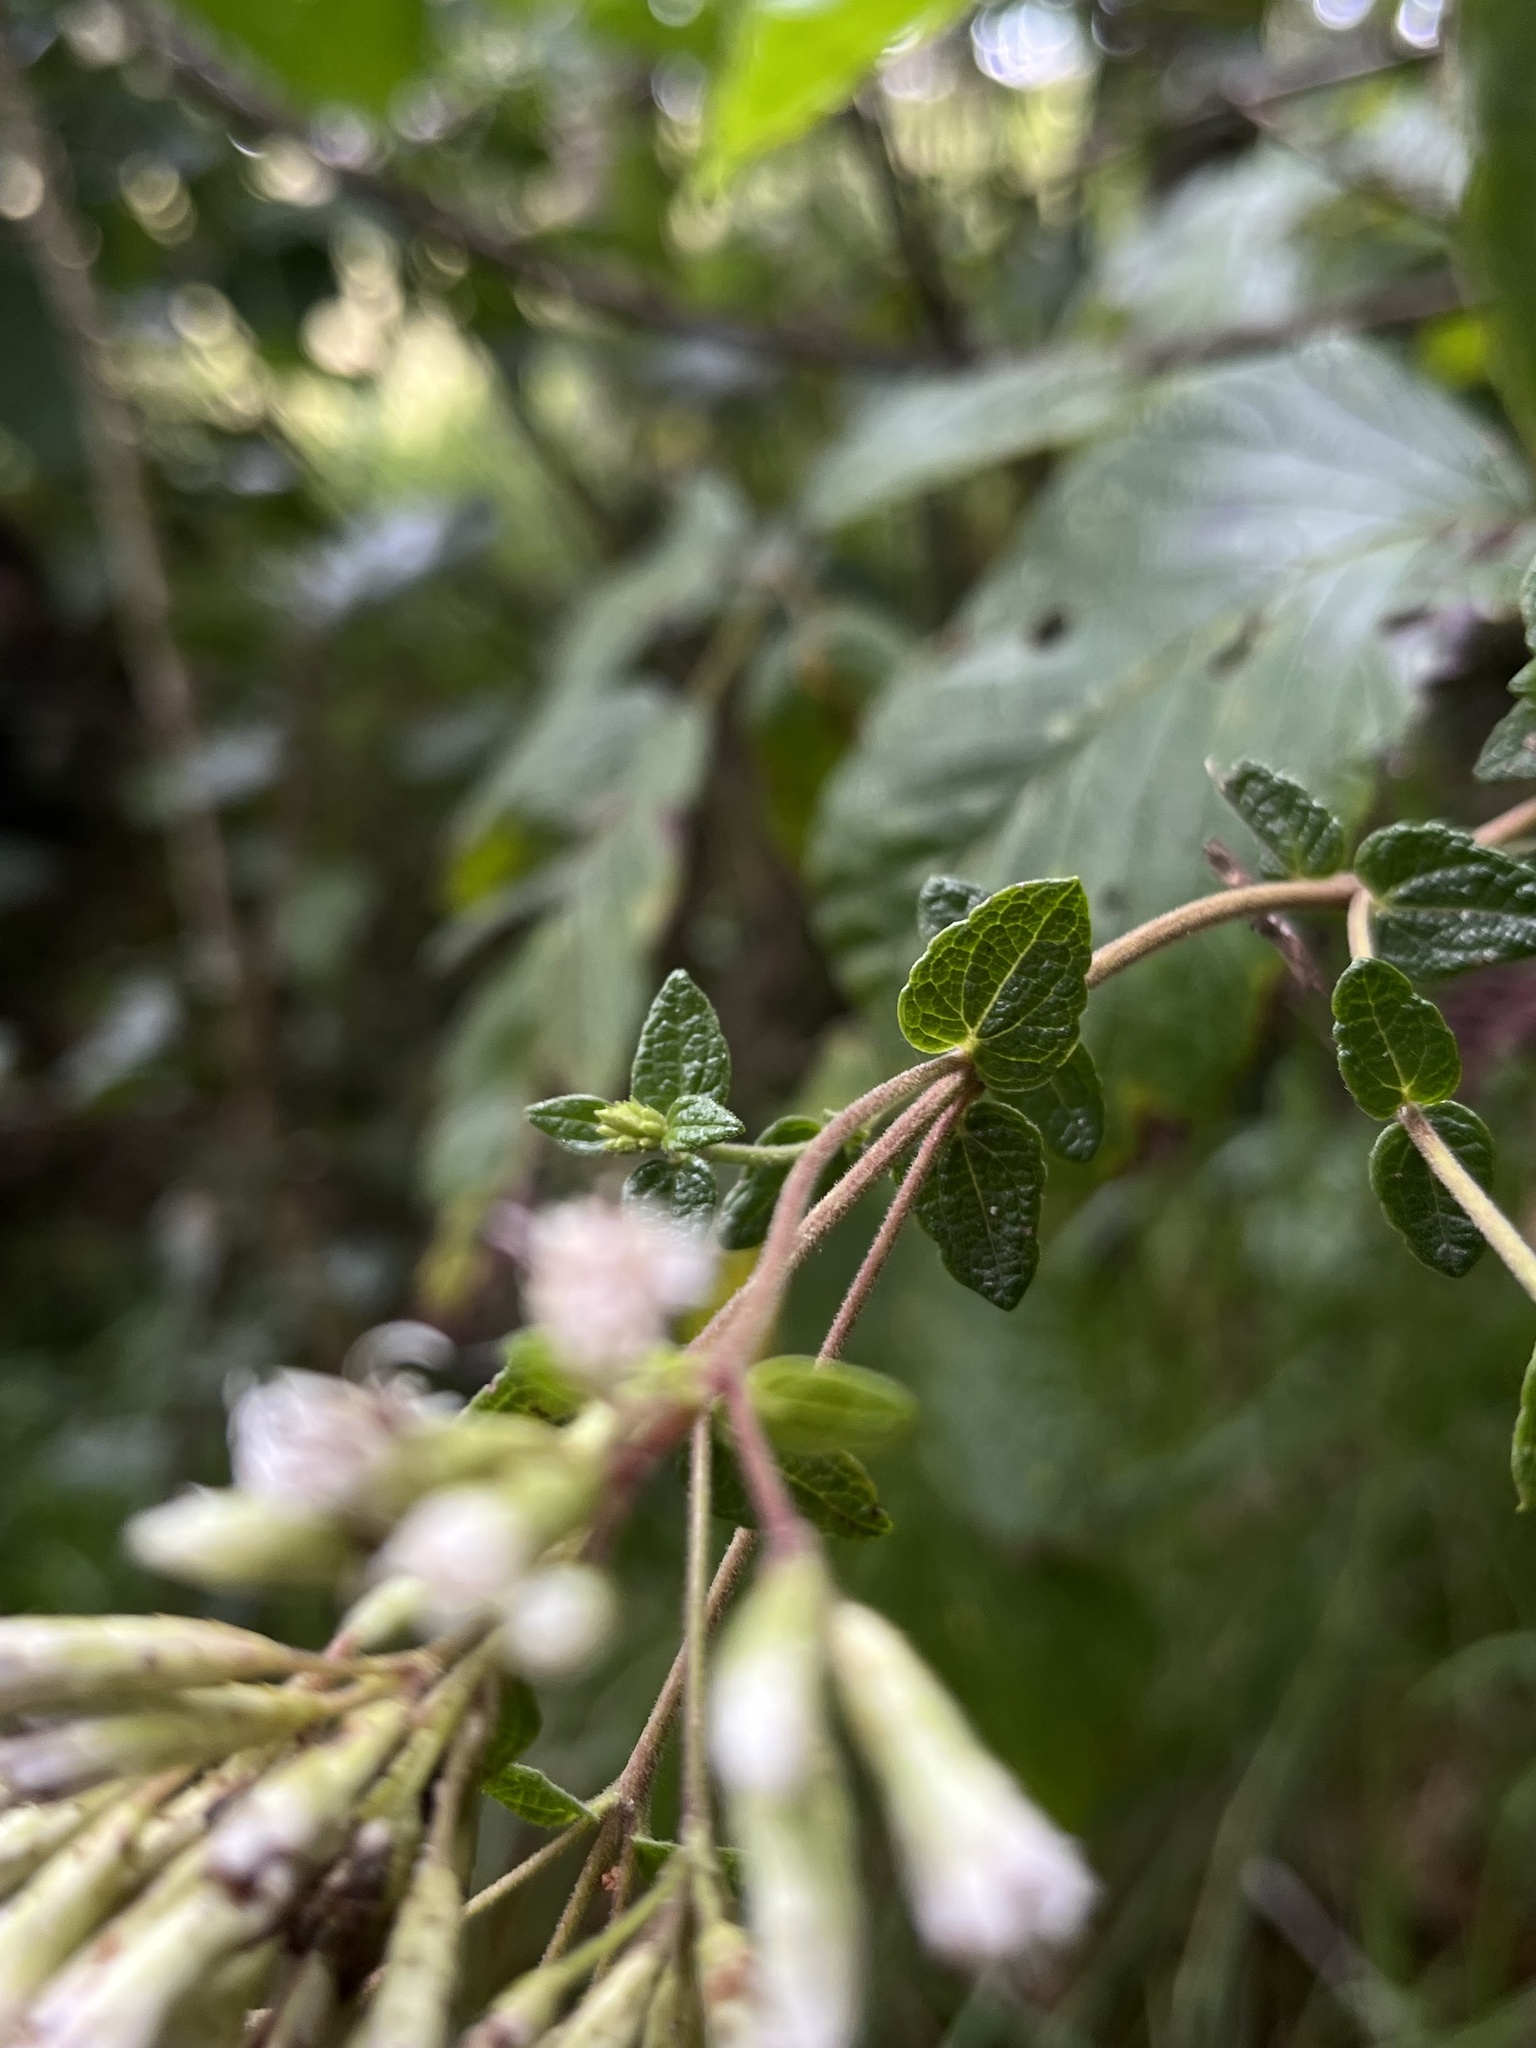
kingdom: Plantae
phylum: Tracheophyta
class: Magnoliopsida
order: Asterales
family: Asteraceae
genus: Chromolaena
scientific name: Chromolaena bullata
